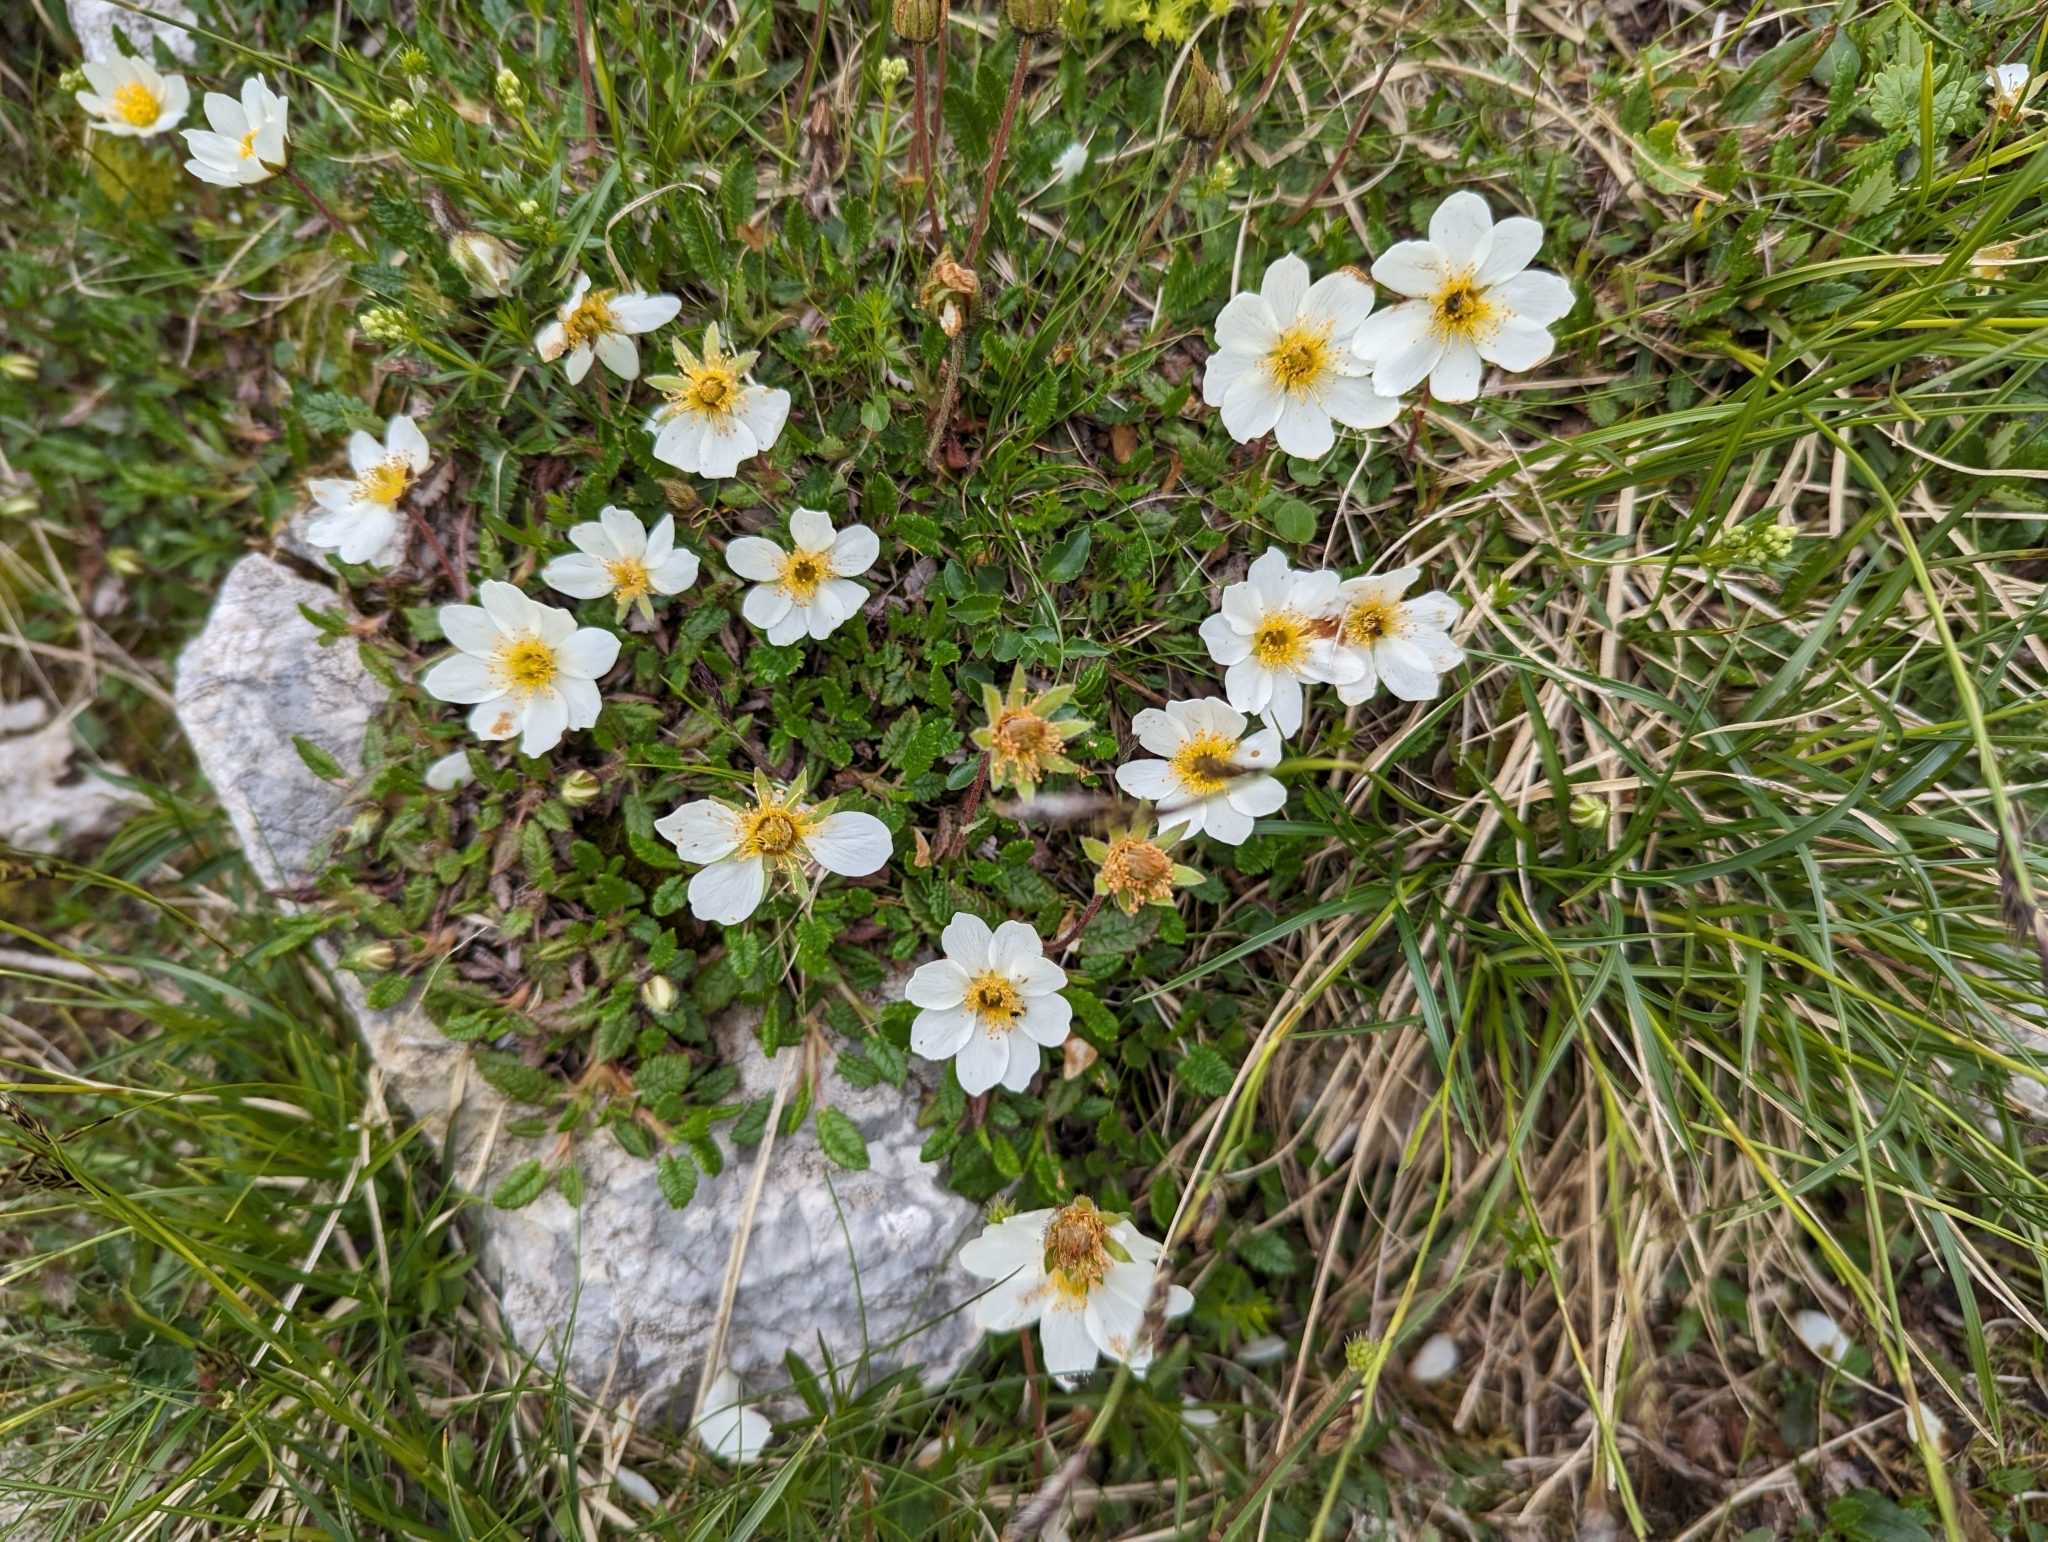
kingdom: Plantae
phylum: Tracheophyta
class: Magnoliopsida
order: Rosales
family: Rosaceae
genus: Dryas
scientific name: Dryas octopetala
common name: Eight-petal mountain-avens
